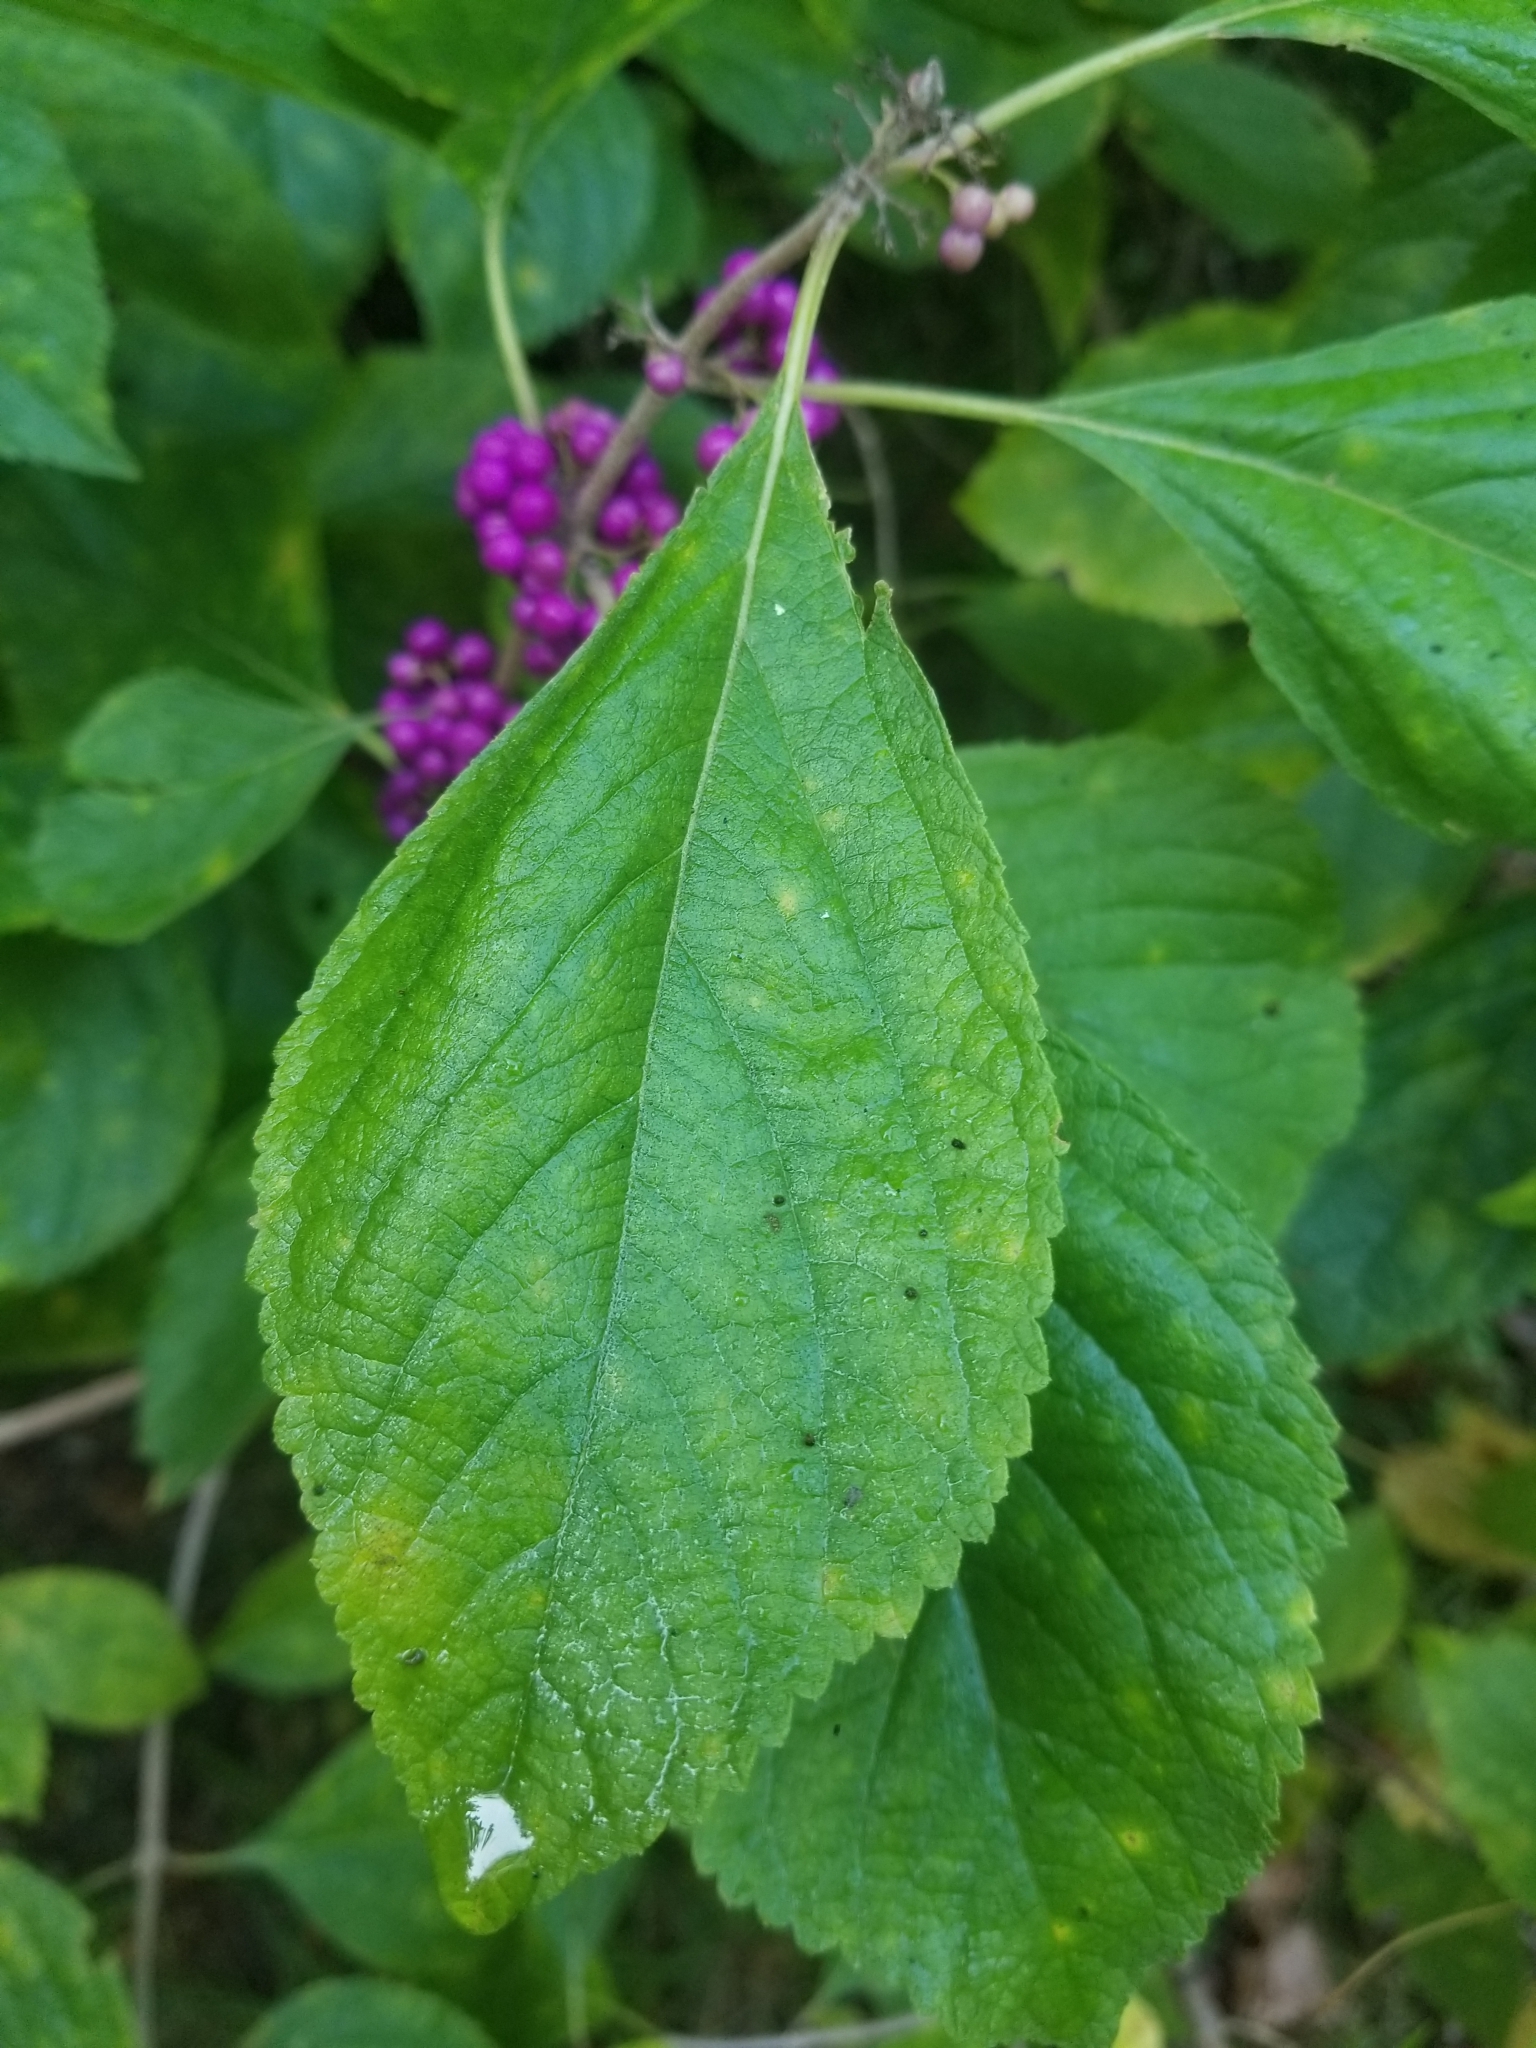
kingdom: Plantae
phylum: Tracheophyta
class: Magnoliopsida
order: Lamiales
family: Lamiaceae
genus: Callicarpa
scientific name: Callicarpa americana
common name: American beautyberry
